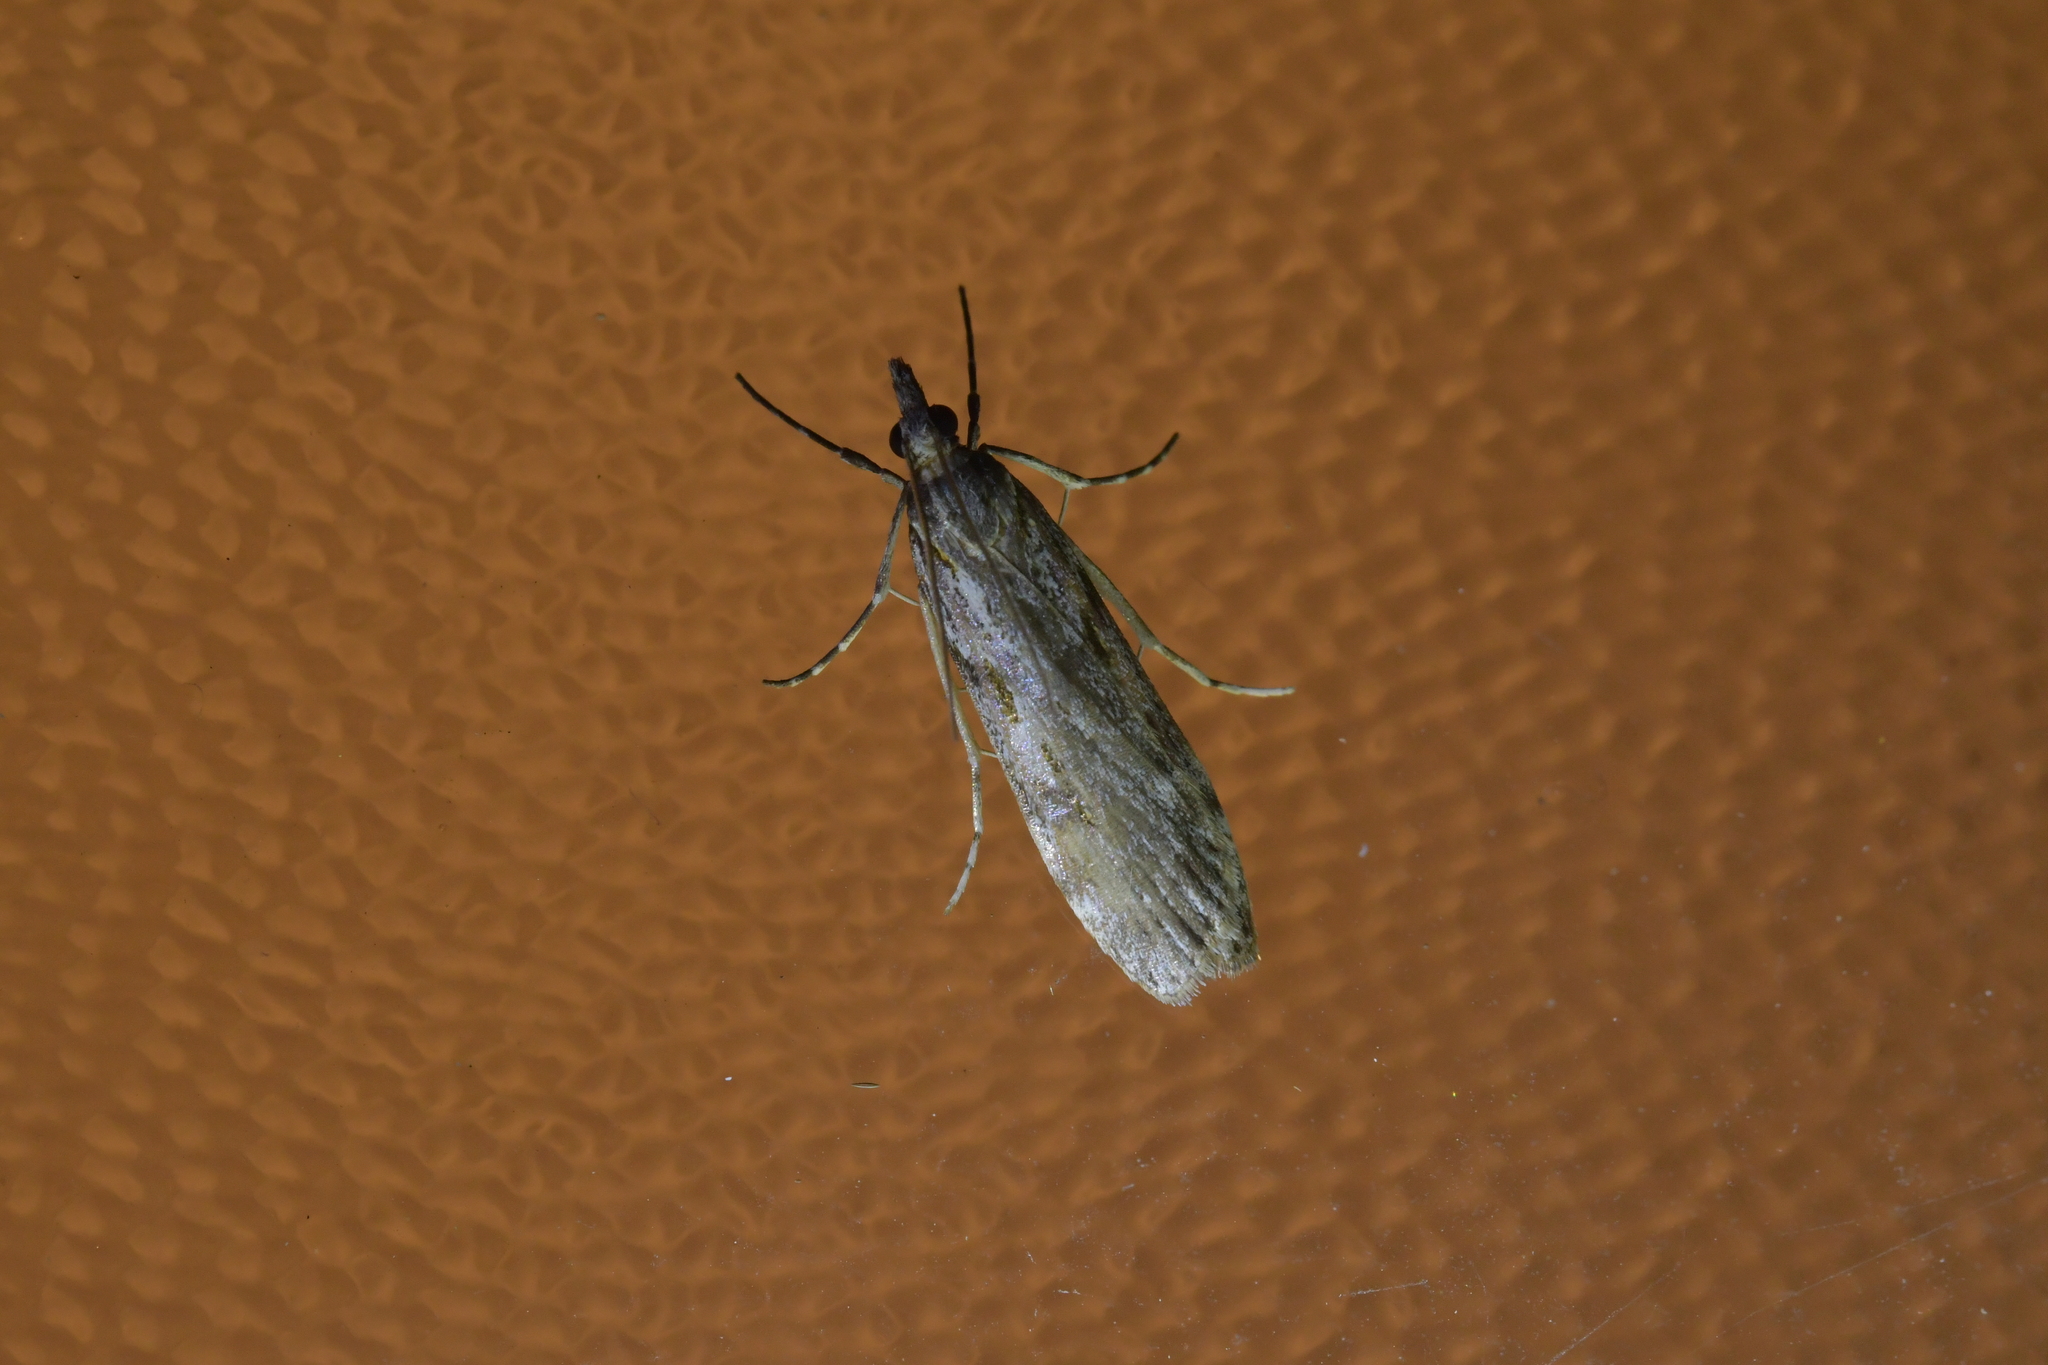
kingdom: Animalia
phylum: Arthropoda
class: Insecta
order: Lepidoptera
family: Crambidae
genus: Scoparia
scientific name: Scoparia halopis
